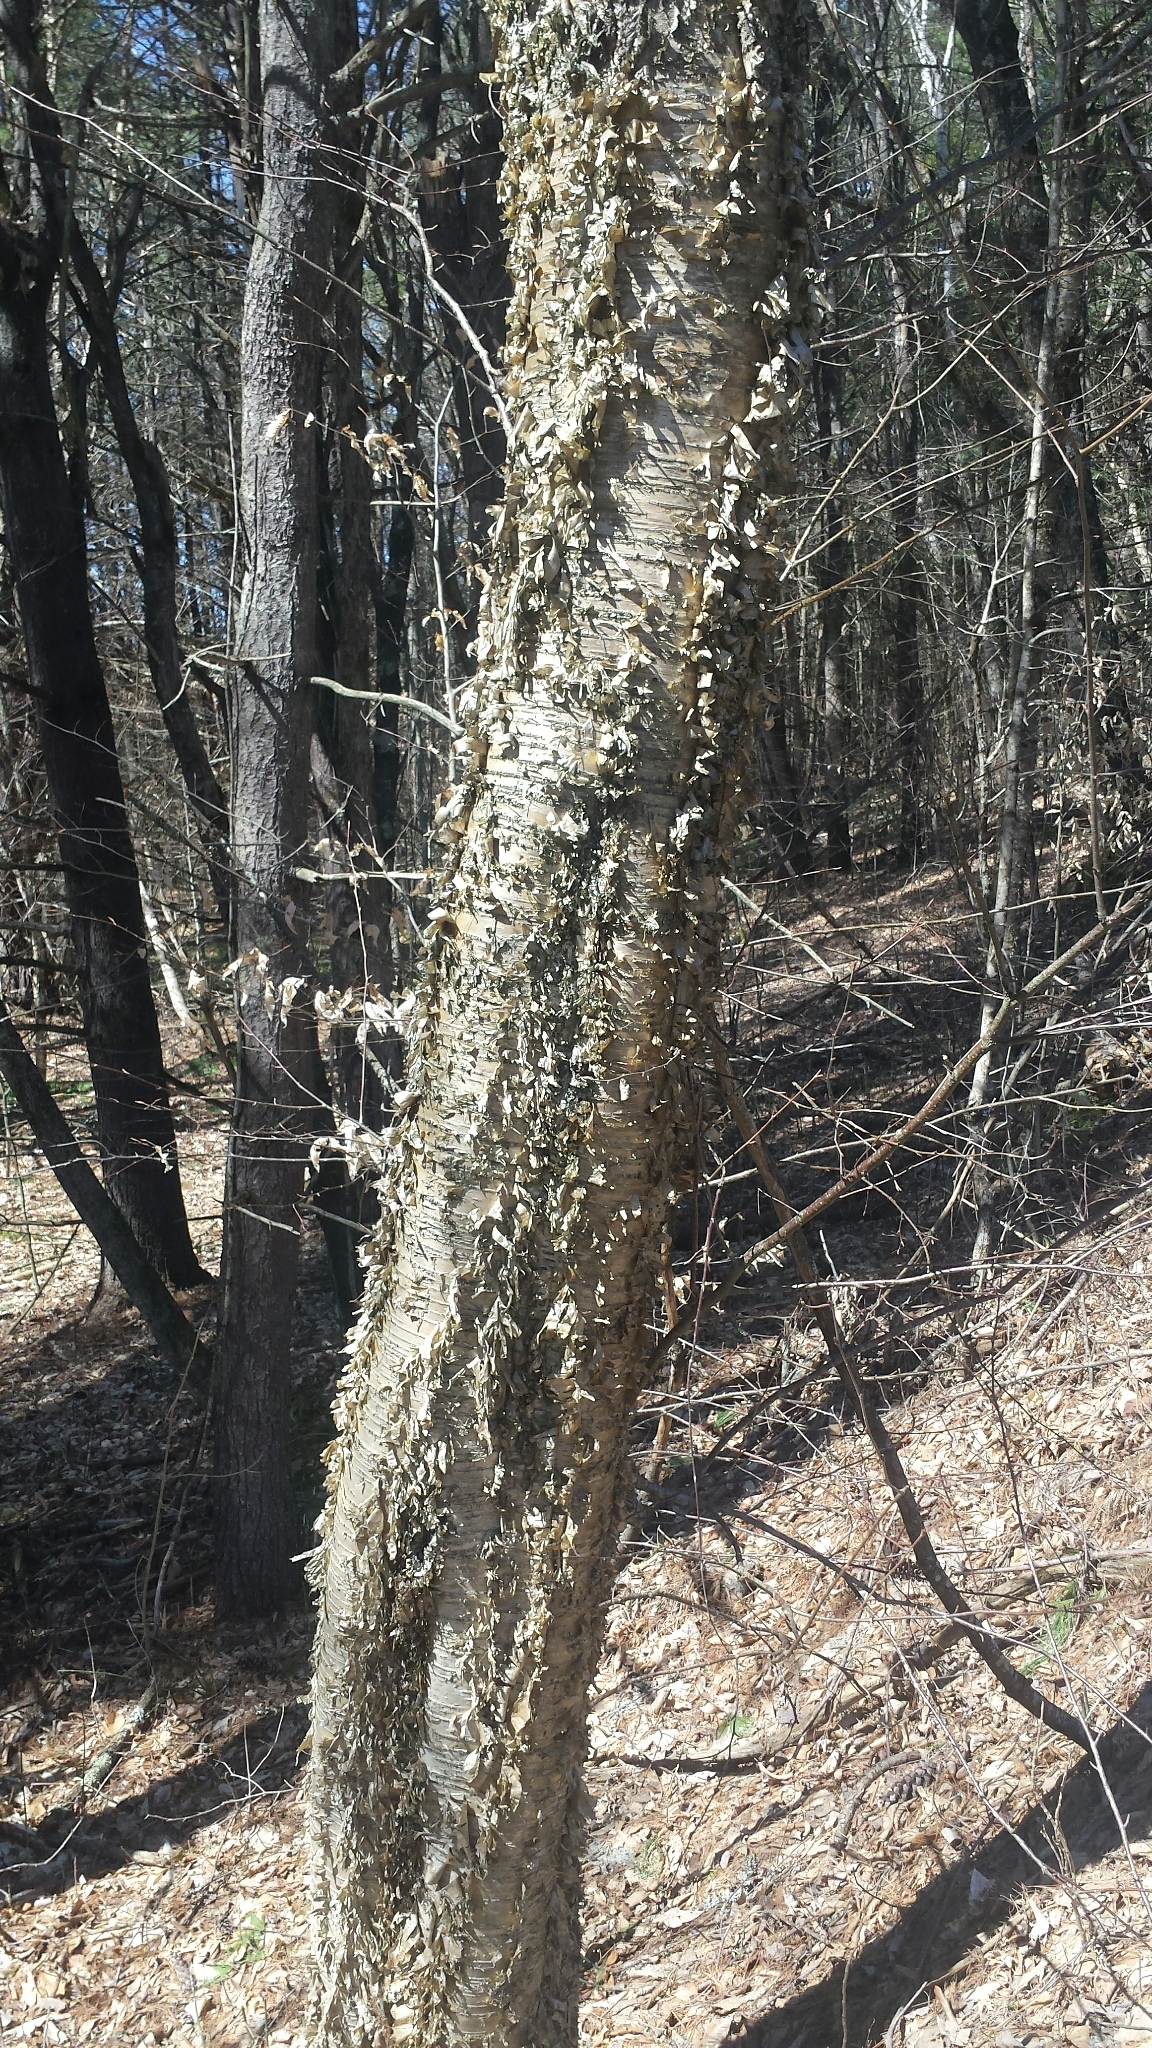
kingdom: Plantae
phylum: Tracheophyta
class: Magnoliopsida
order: Fagales
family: Betulaceae
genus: Betula
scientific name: Betula alleghaniensis
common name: Yellow birch
